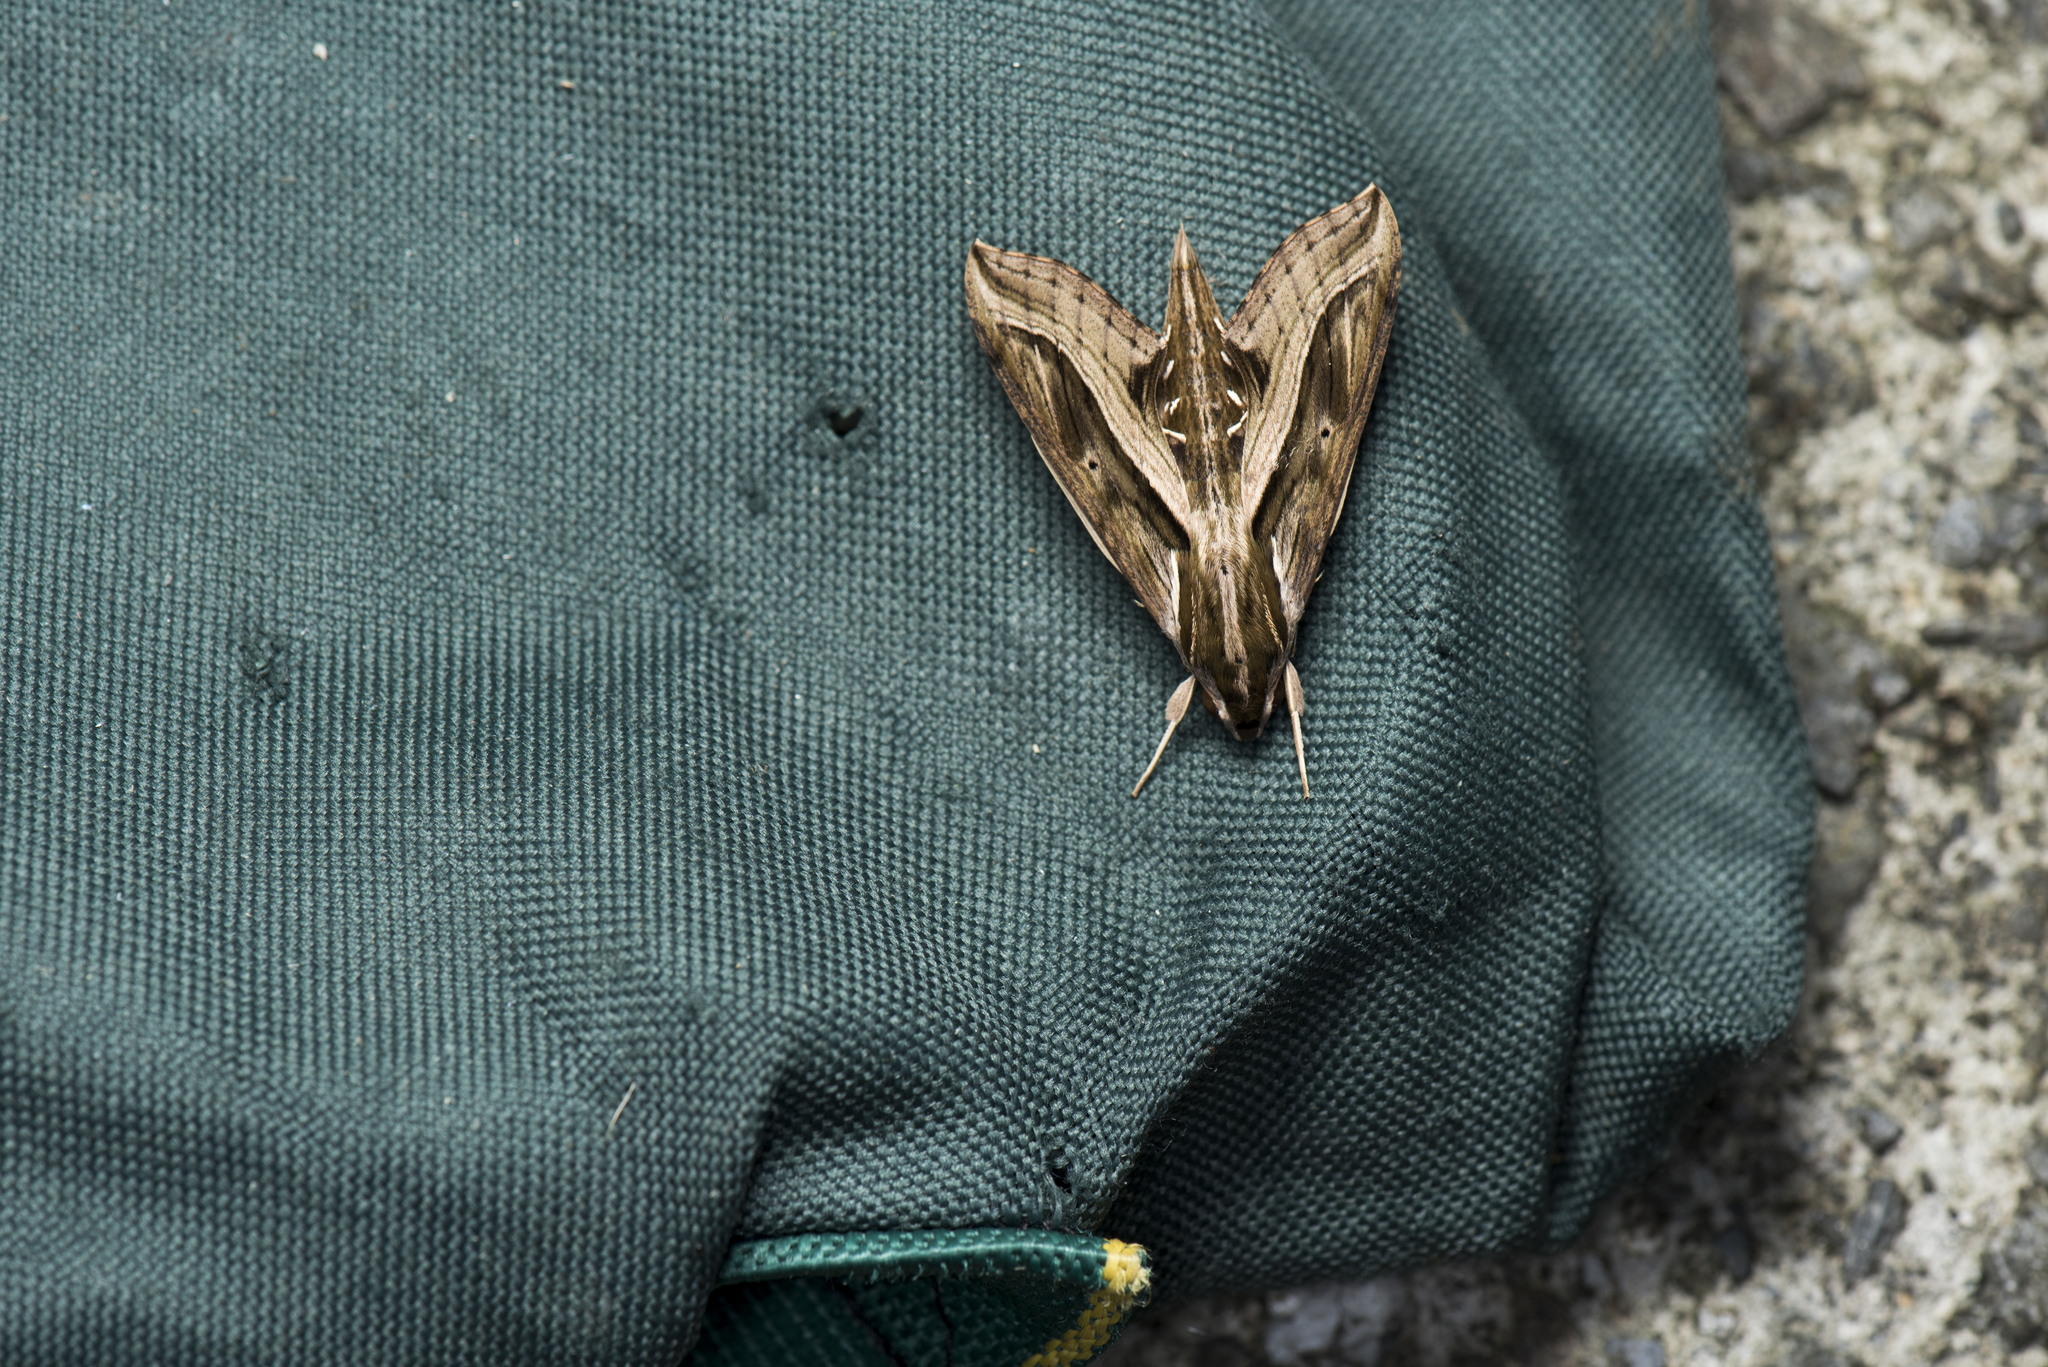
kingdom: Animalia
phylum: Arthropoda
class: Insecta
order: Lepidoptera
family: Sphingidae
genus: Hippotion
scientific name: Hippotion velox
